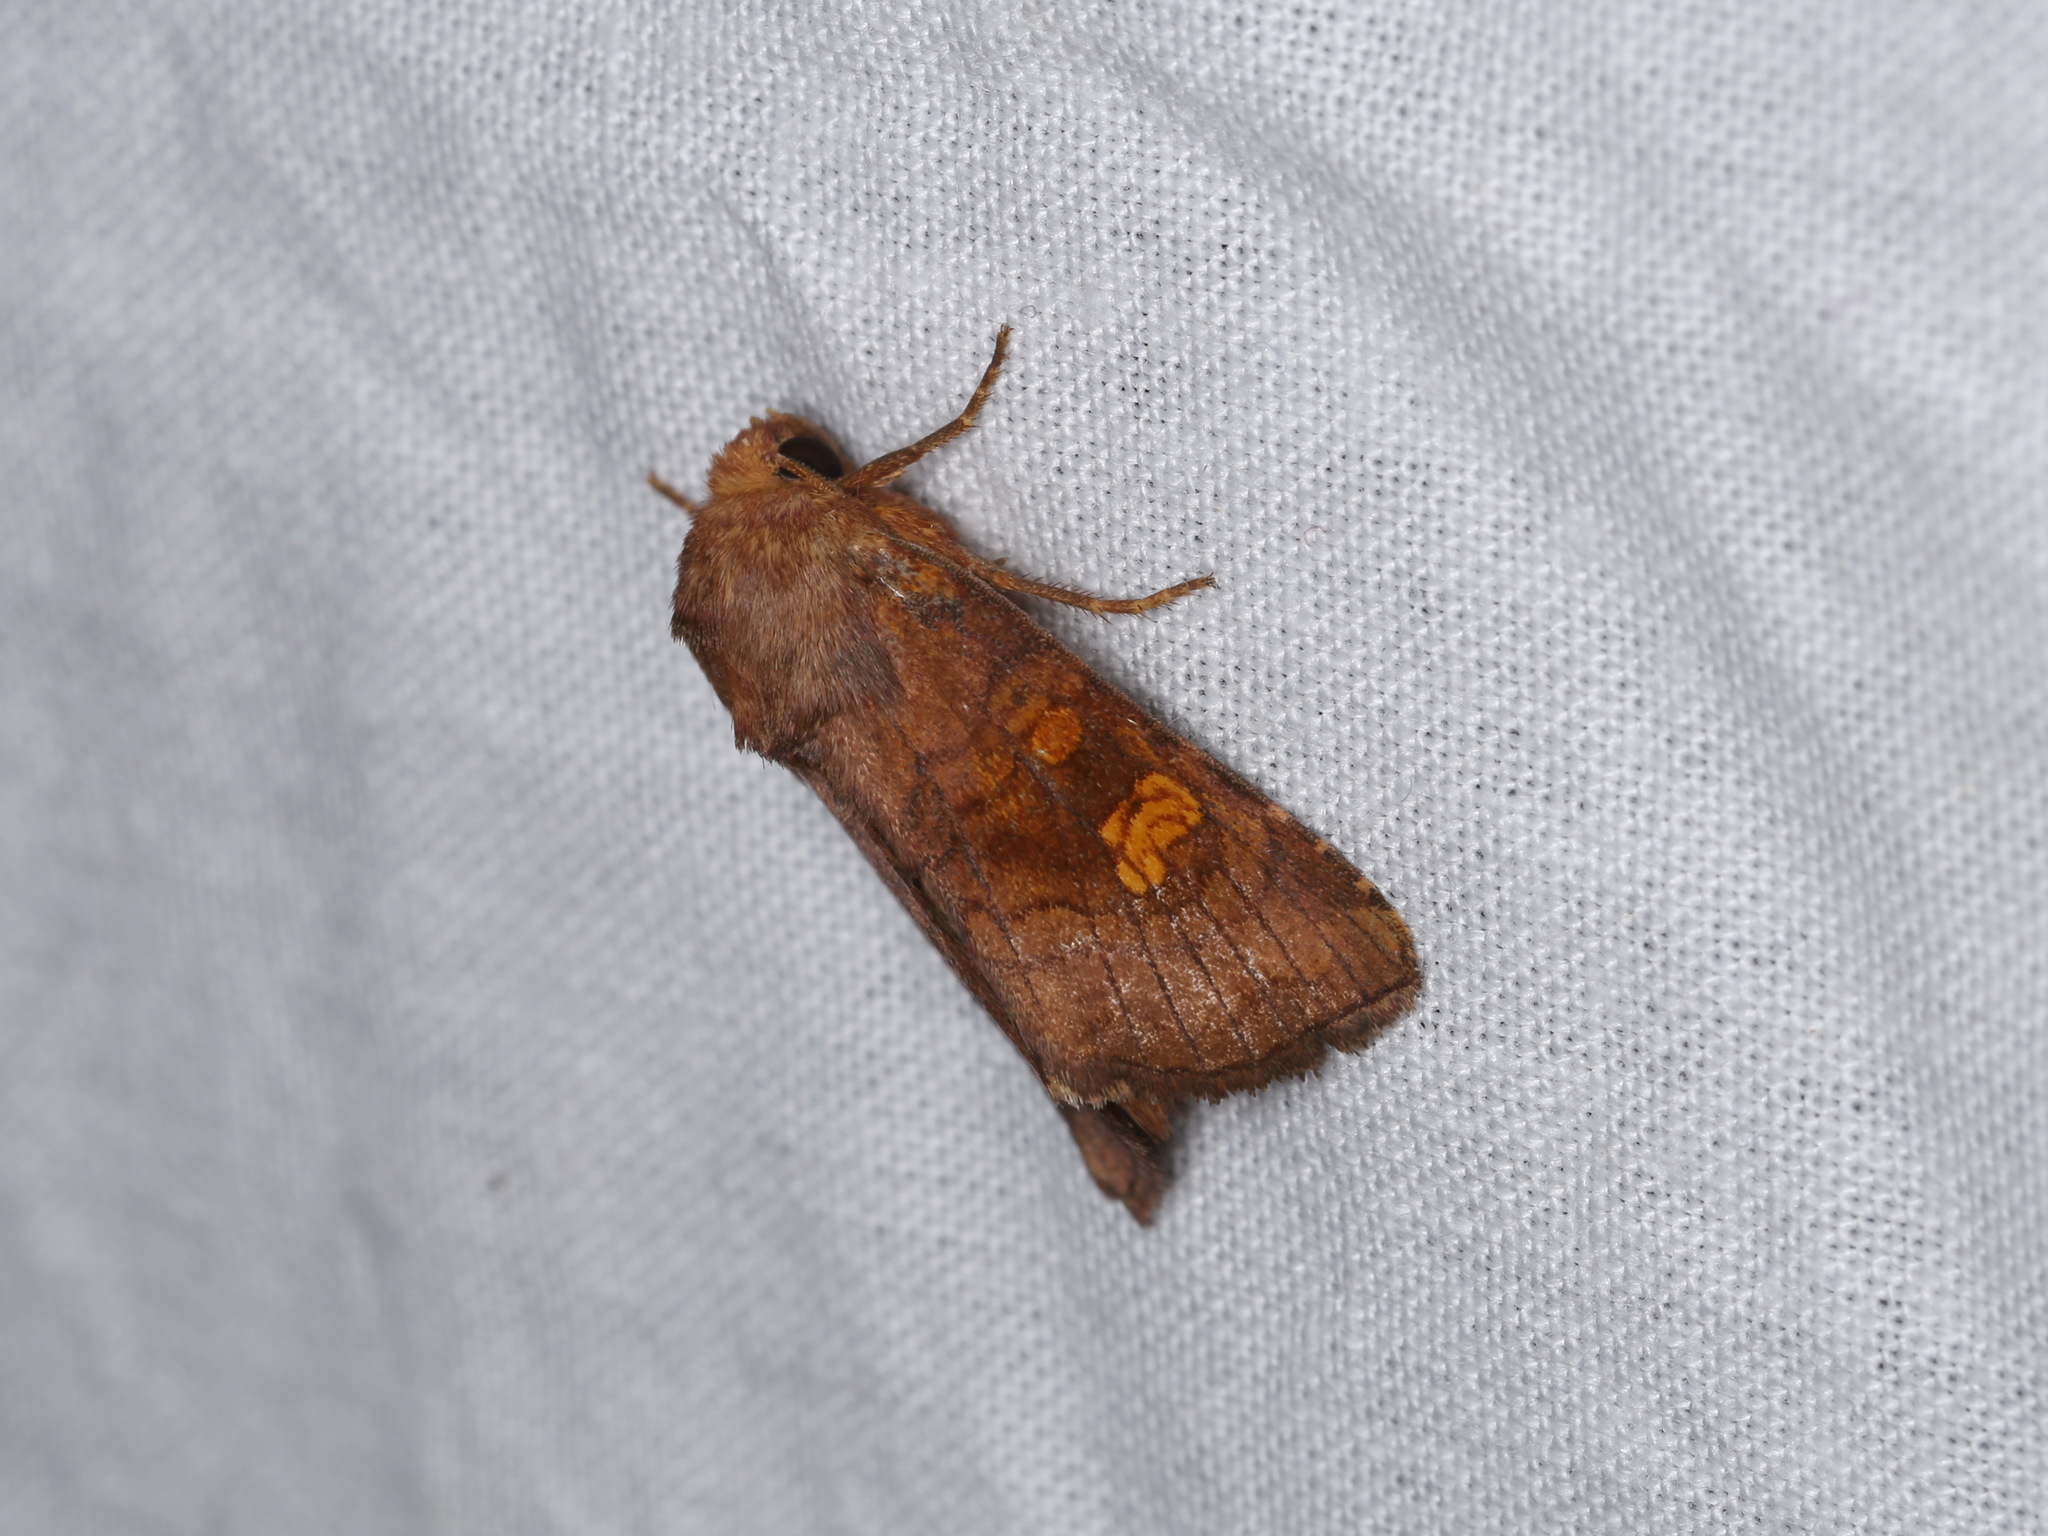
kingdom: Animalia
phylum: Arthropoda
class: Insecta
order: Lepidoptera
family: Noctuidae
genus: Amphipoea
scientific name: Amphipoea
